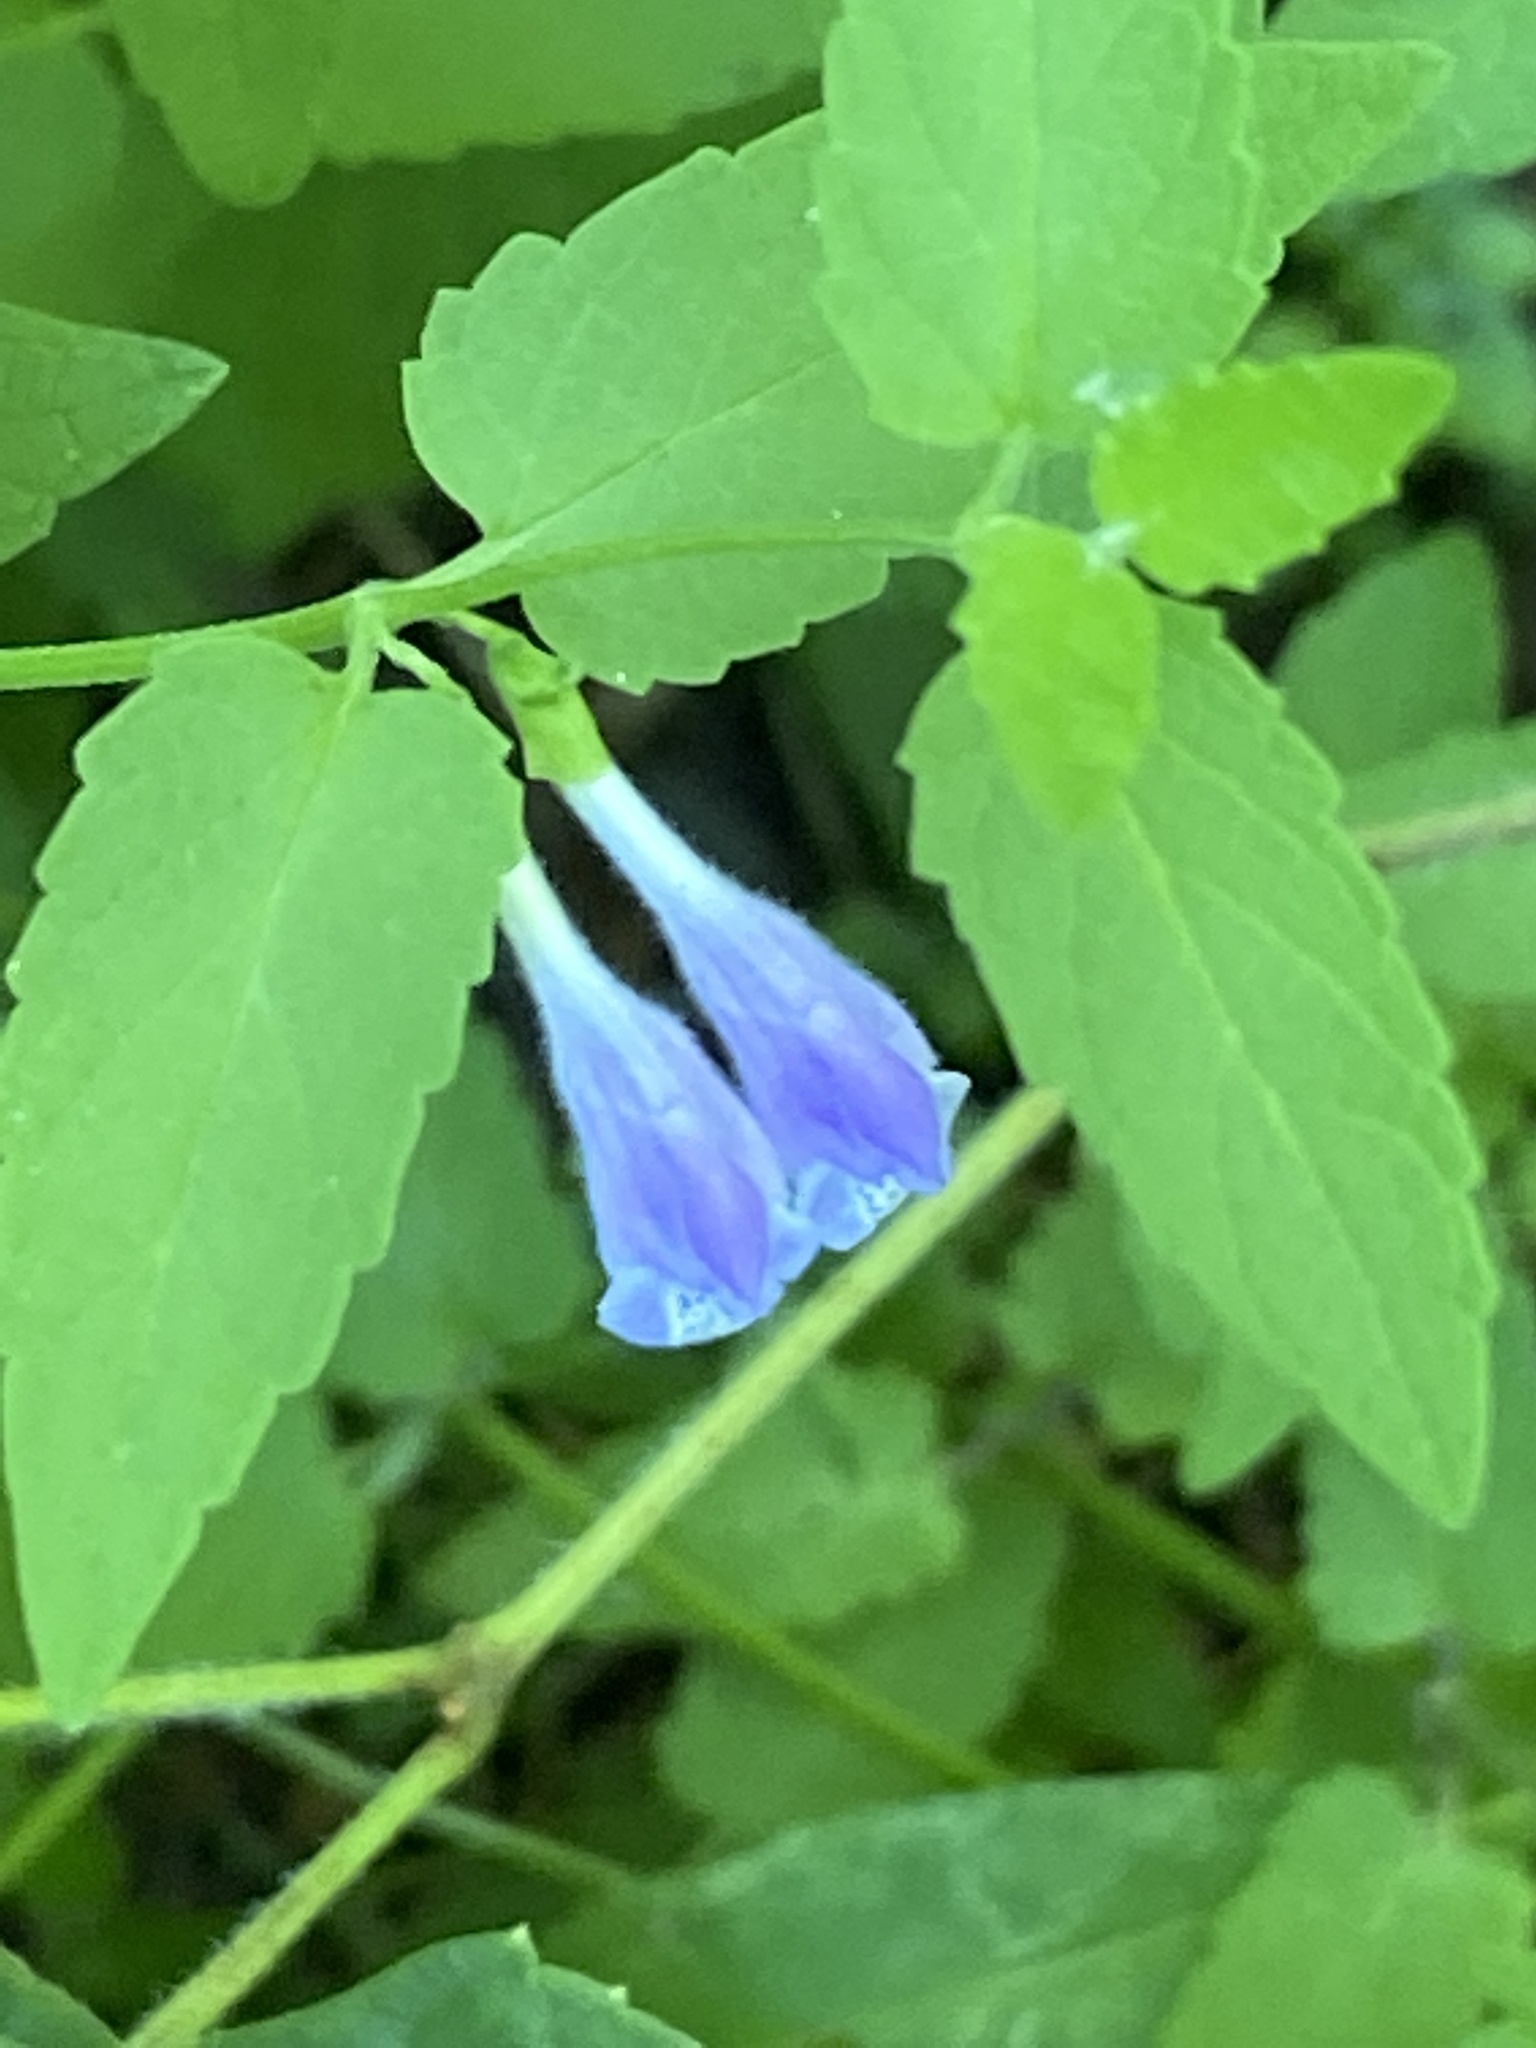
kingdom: Plantae
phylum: Tracheophyta
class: Magnoliopsida
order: Lamiales
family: Lamiaceae
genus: Scutellaria
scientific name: Scutellaria churchilliana
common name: Churchill's skullcap
